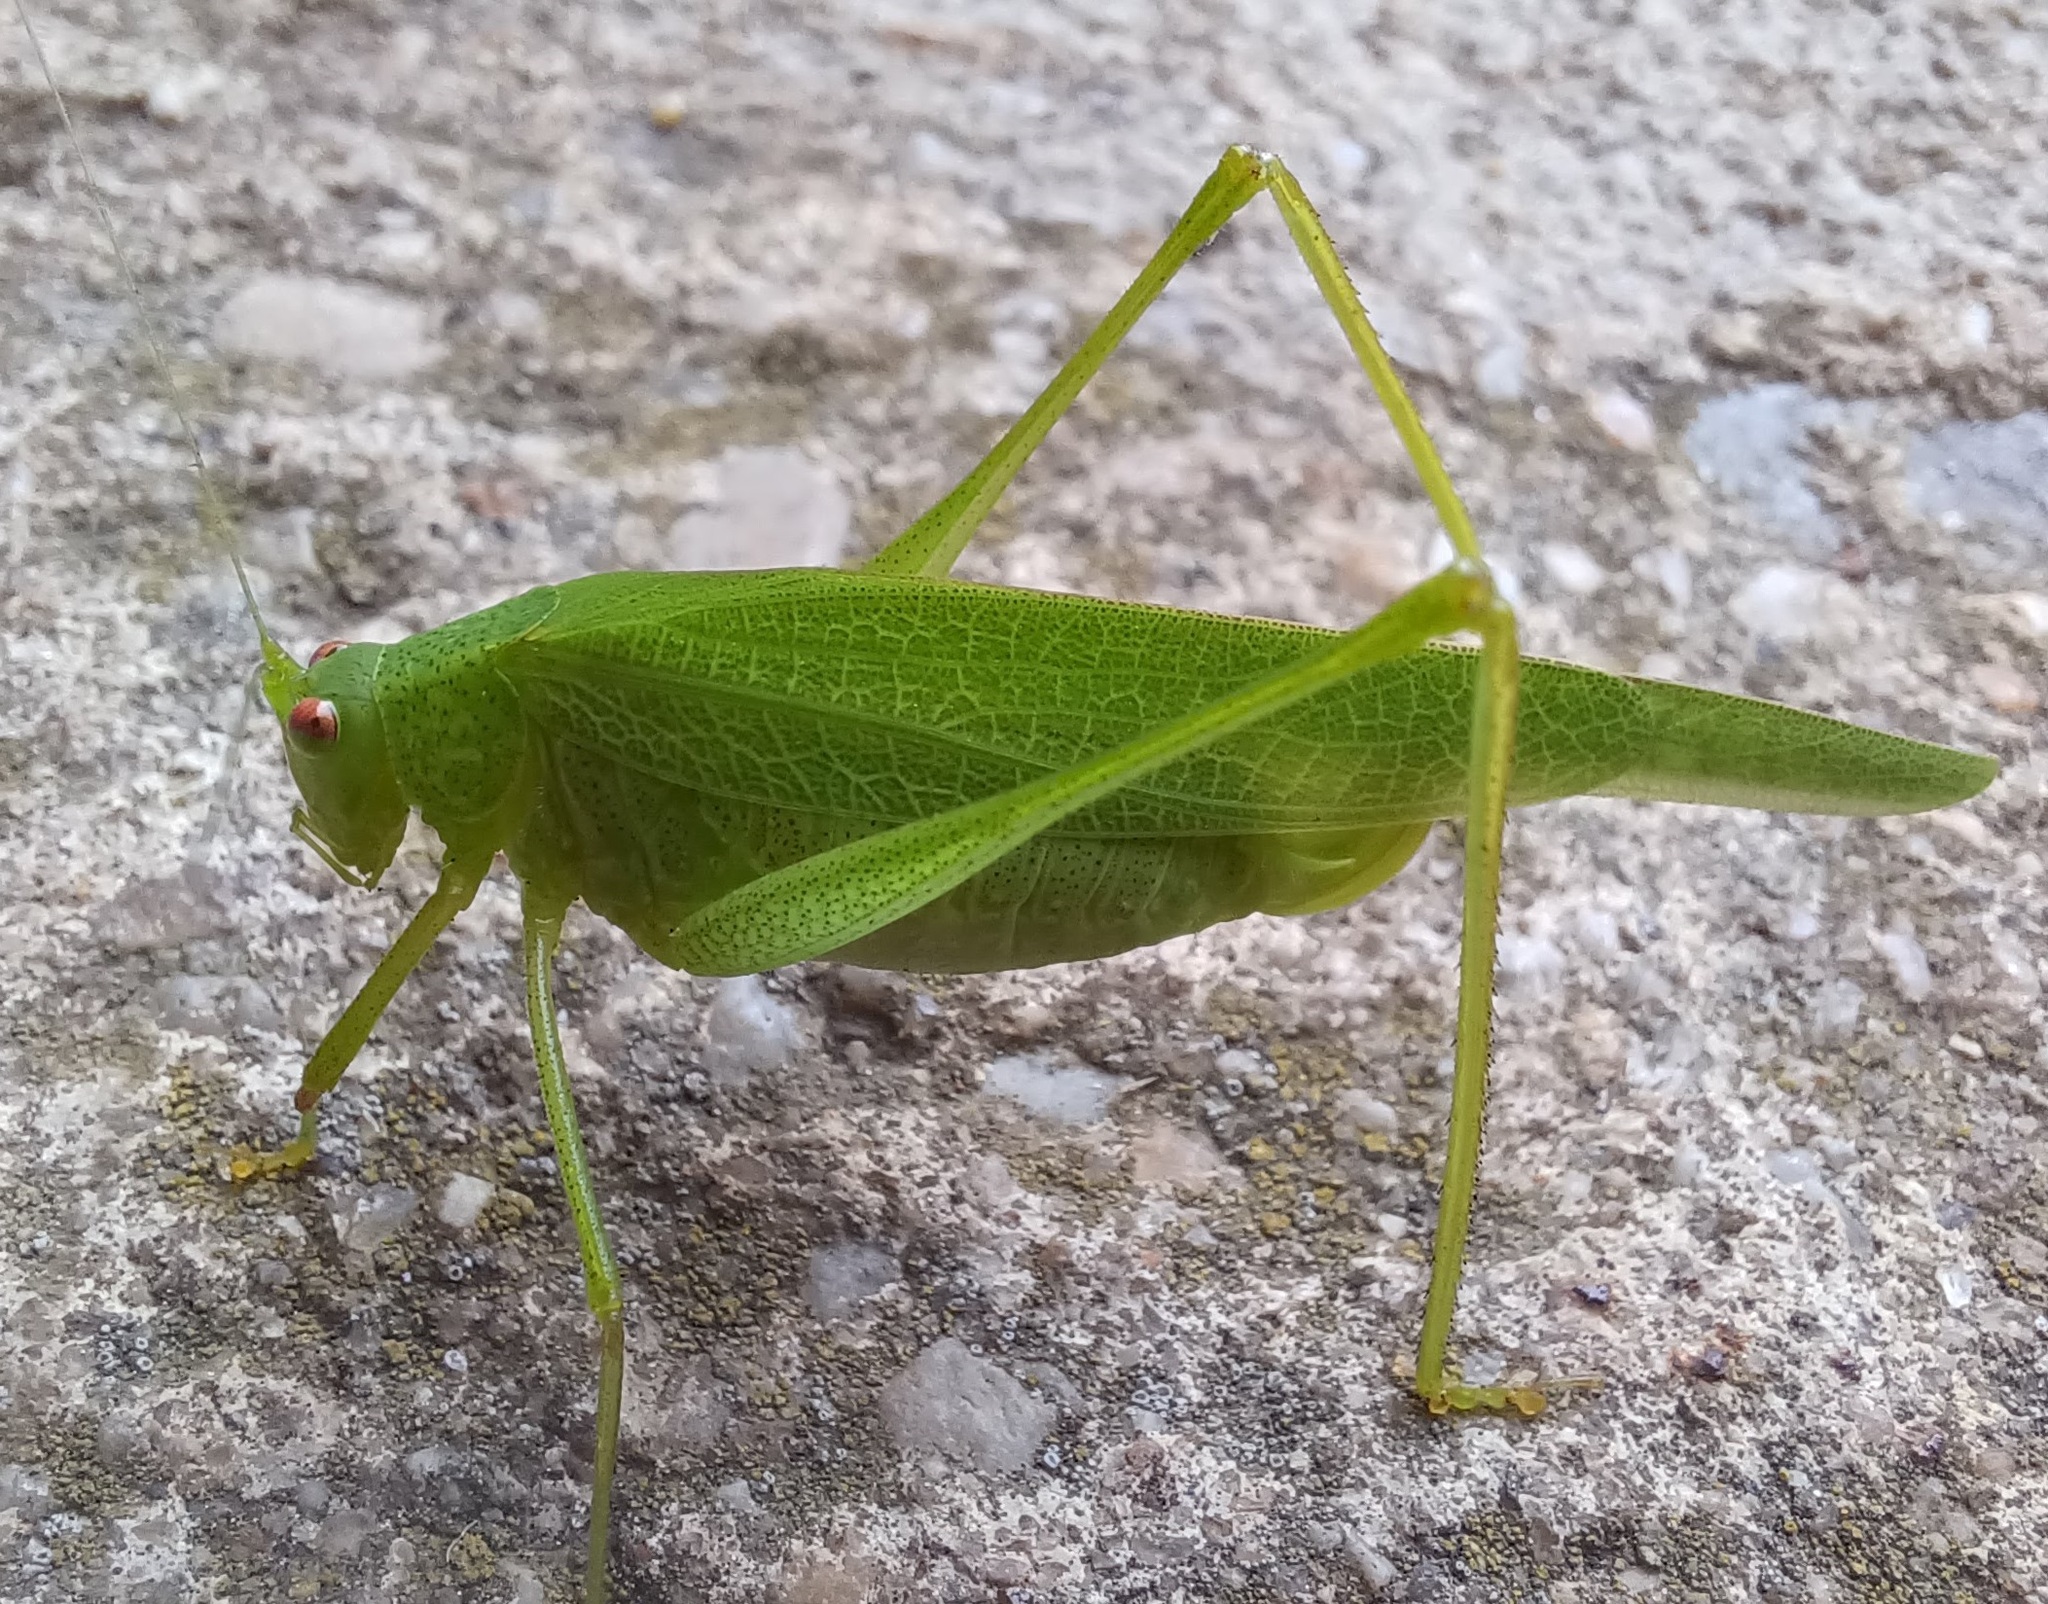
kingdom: Animalia
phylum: Arthropoda
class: Insecta
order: Orthoptera
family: Tettigoniidae
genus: Phaneroptera
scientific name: Phaneroptera nana
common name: Southern sickle bush-cricket
